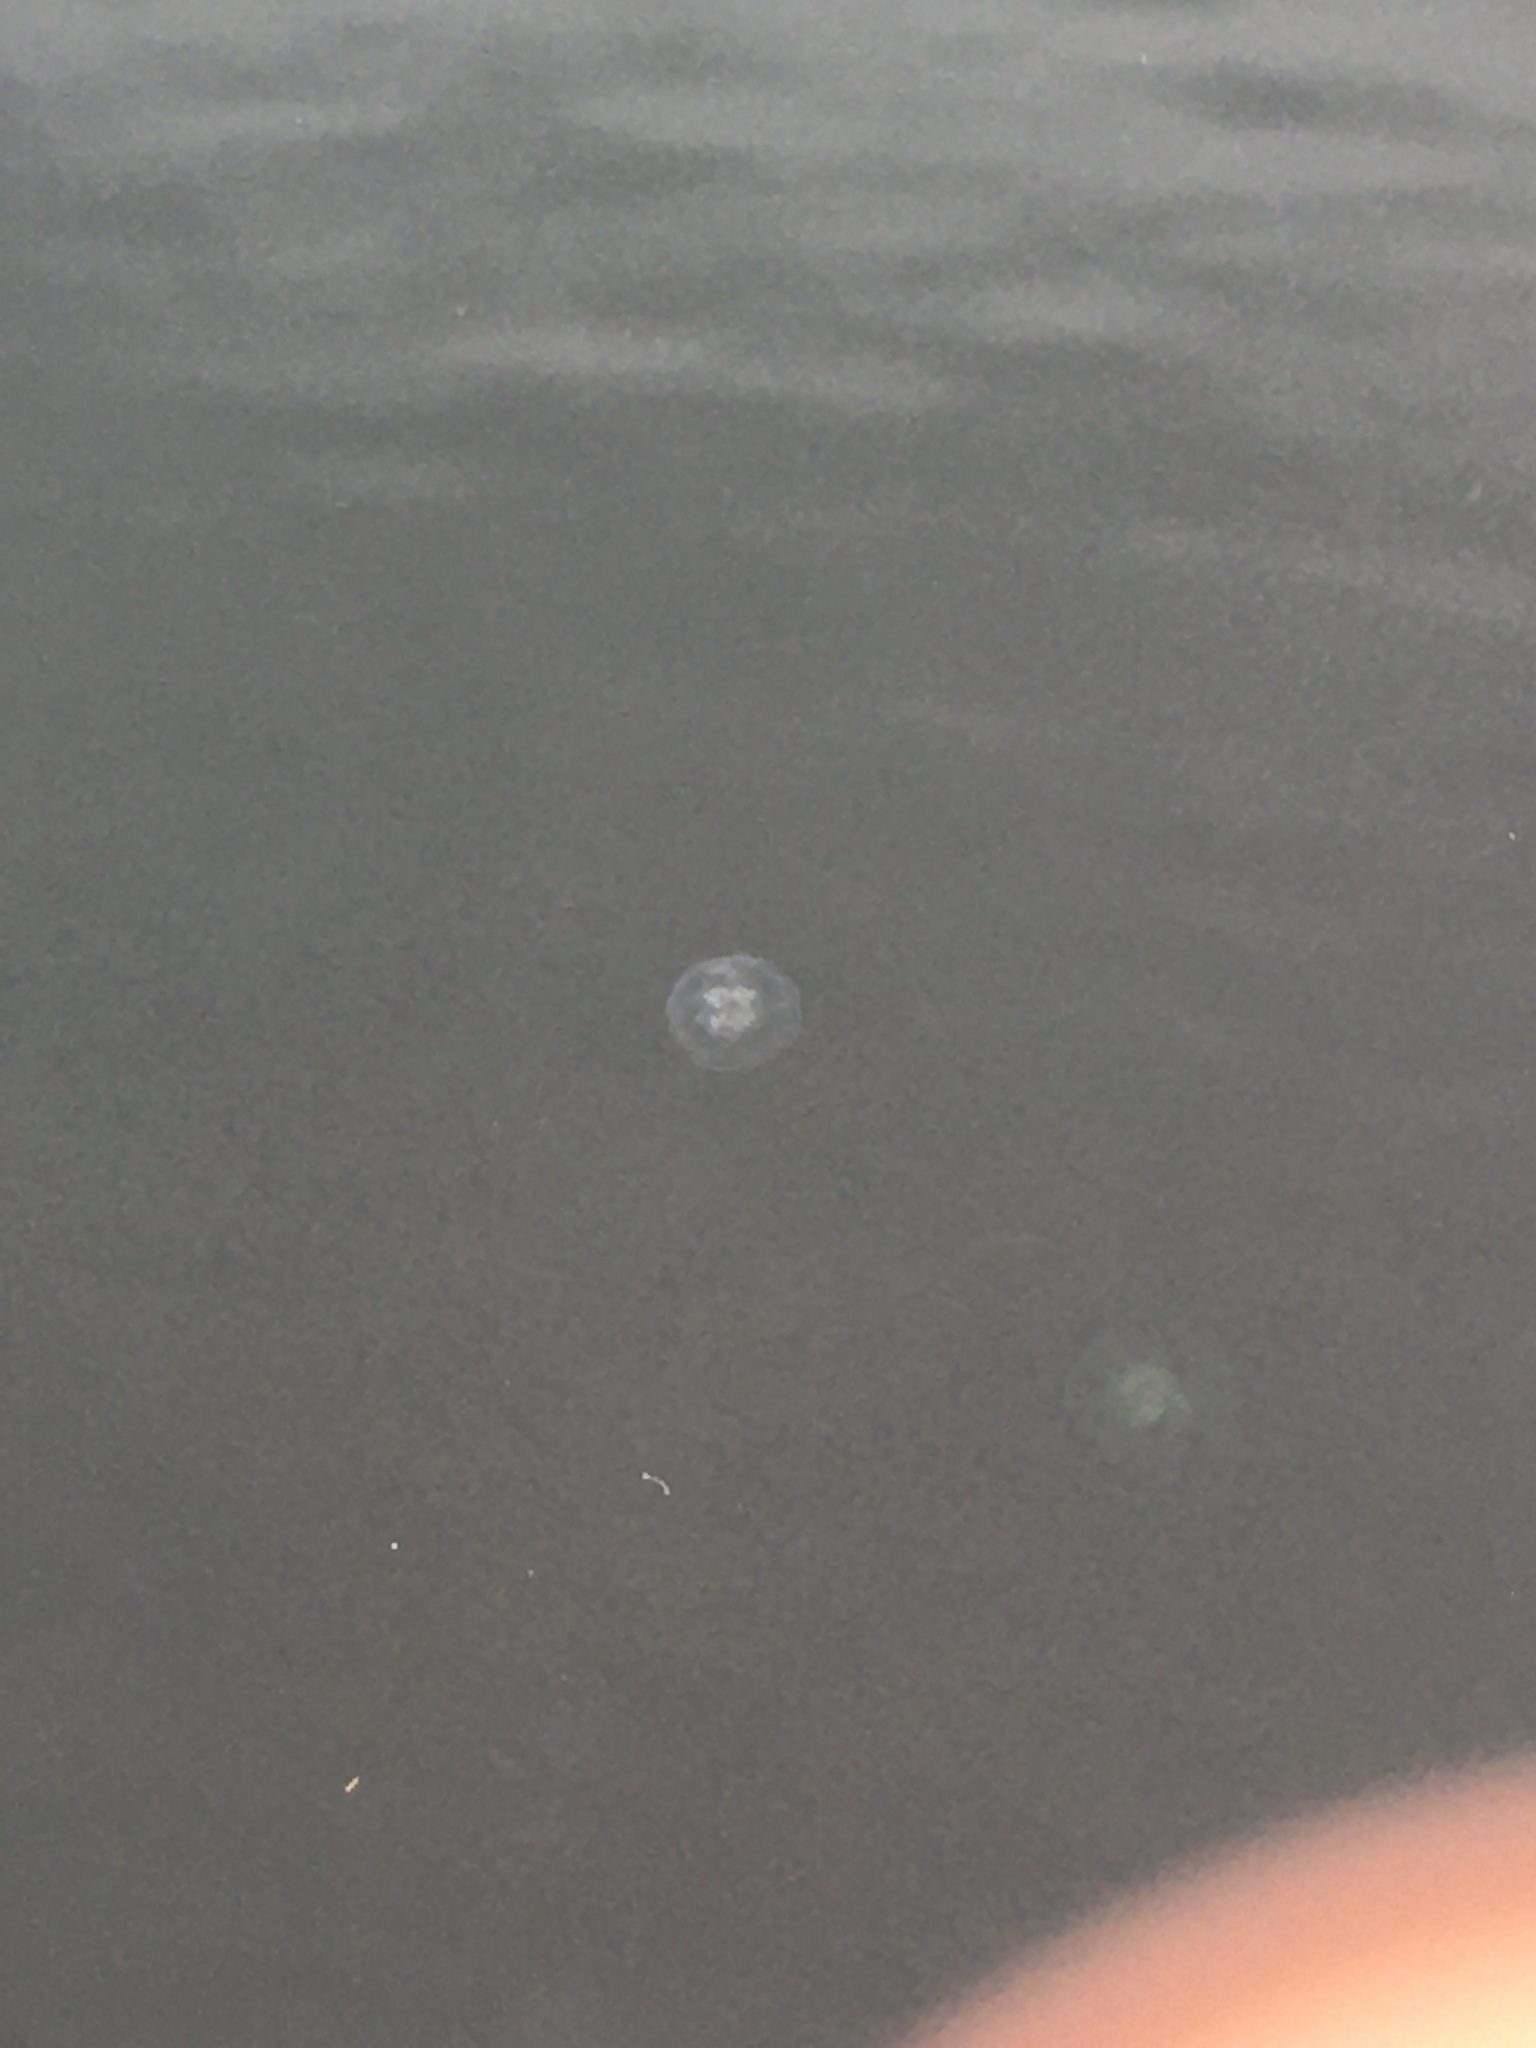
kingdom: Animalia
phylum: Cnidaria
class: Scyphozoa
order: Semaeostomeae
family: Ulmaridae
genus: Aurelia
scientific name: Aurelia labiata
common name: Pacific moon jelly
